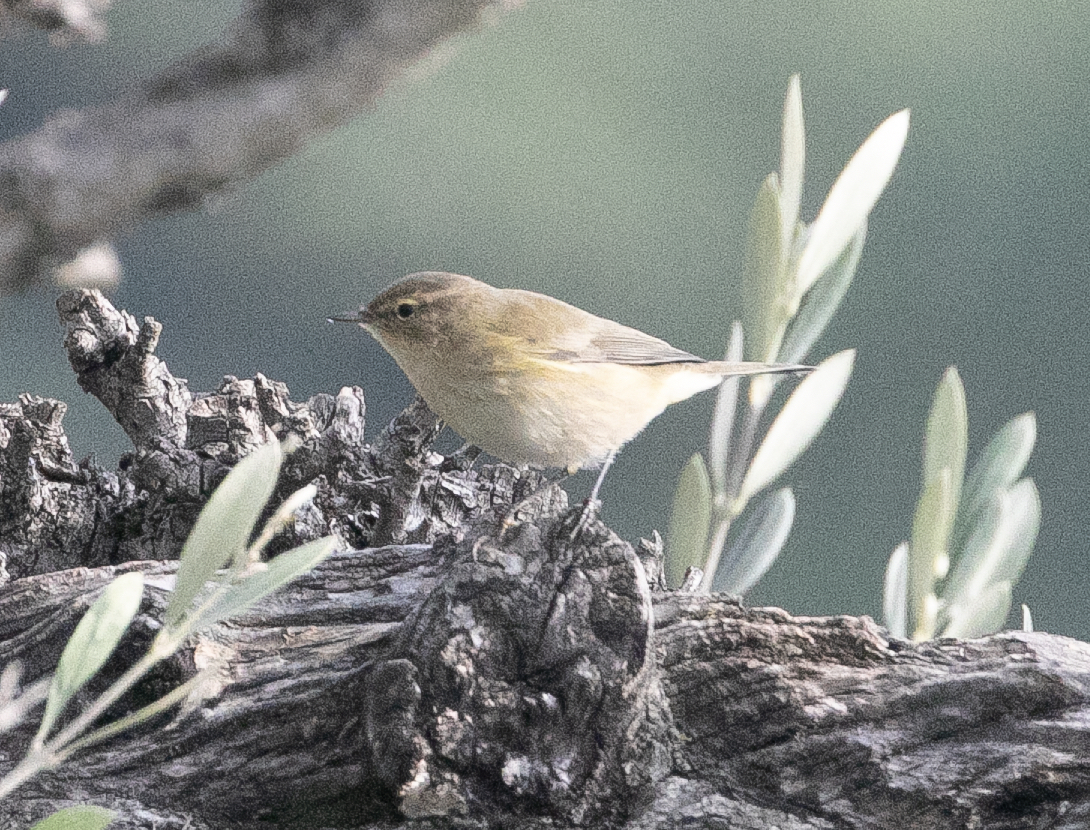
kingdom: Animalia
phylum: Chordata
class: Aves
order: Passeriformes
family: Phylloscopidae
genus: Phylloscopus
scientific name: Phylloscopus collybita
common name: Common chiffchaff
